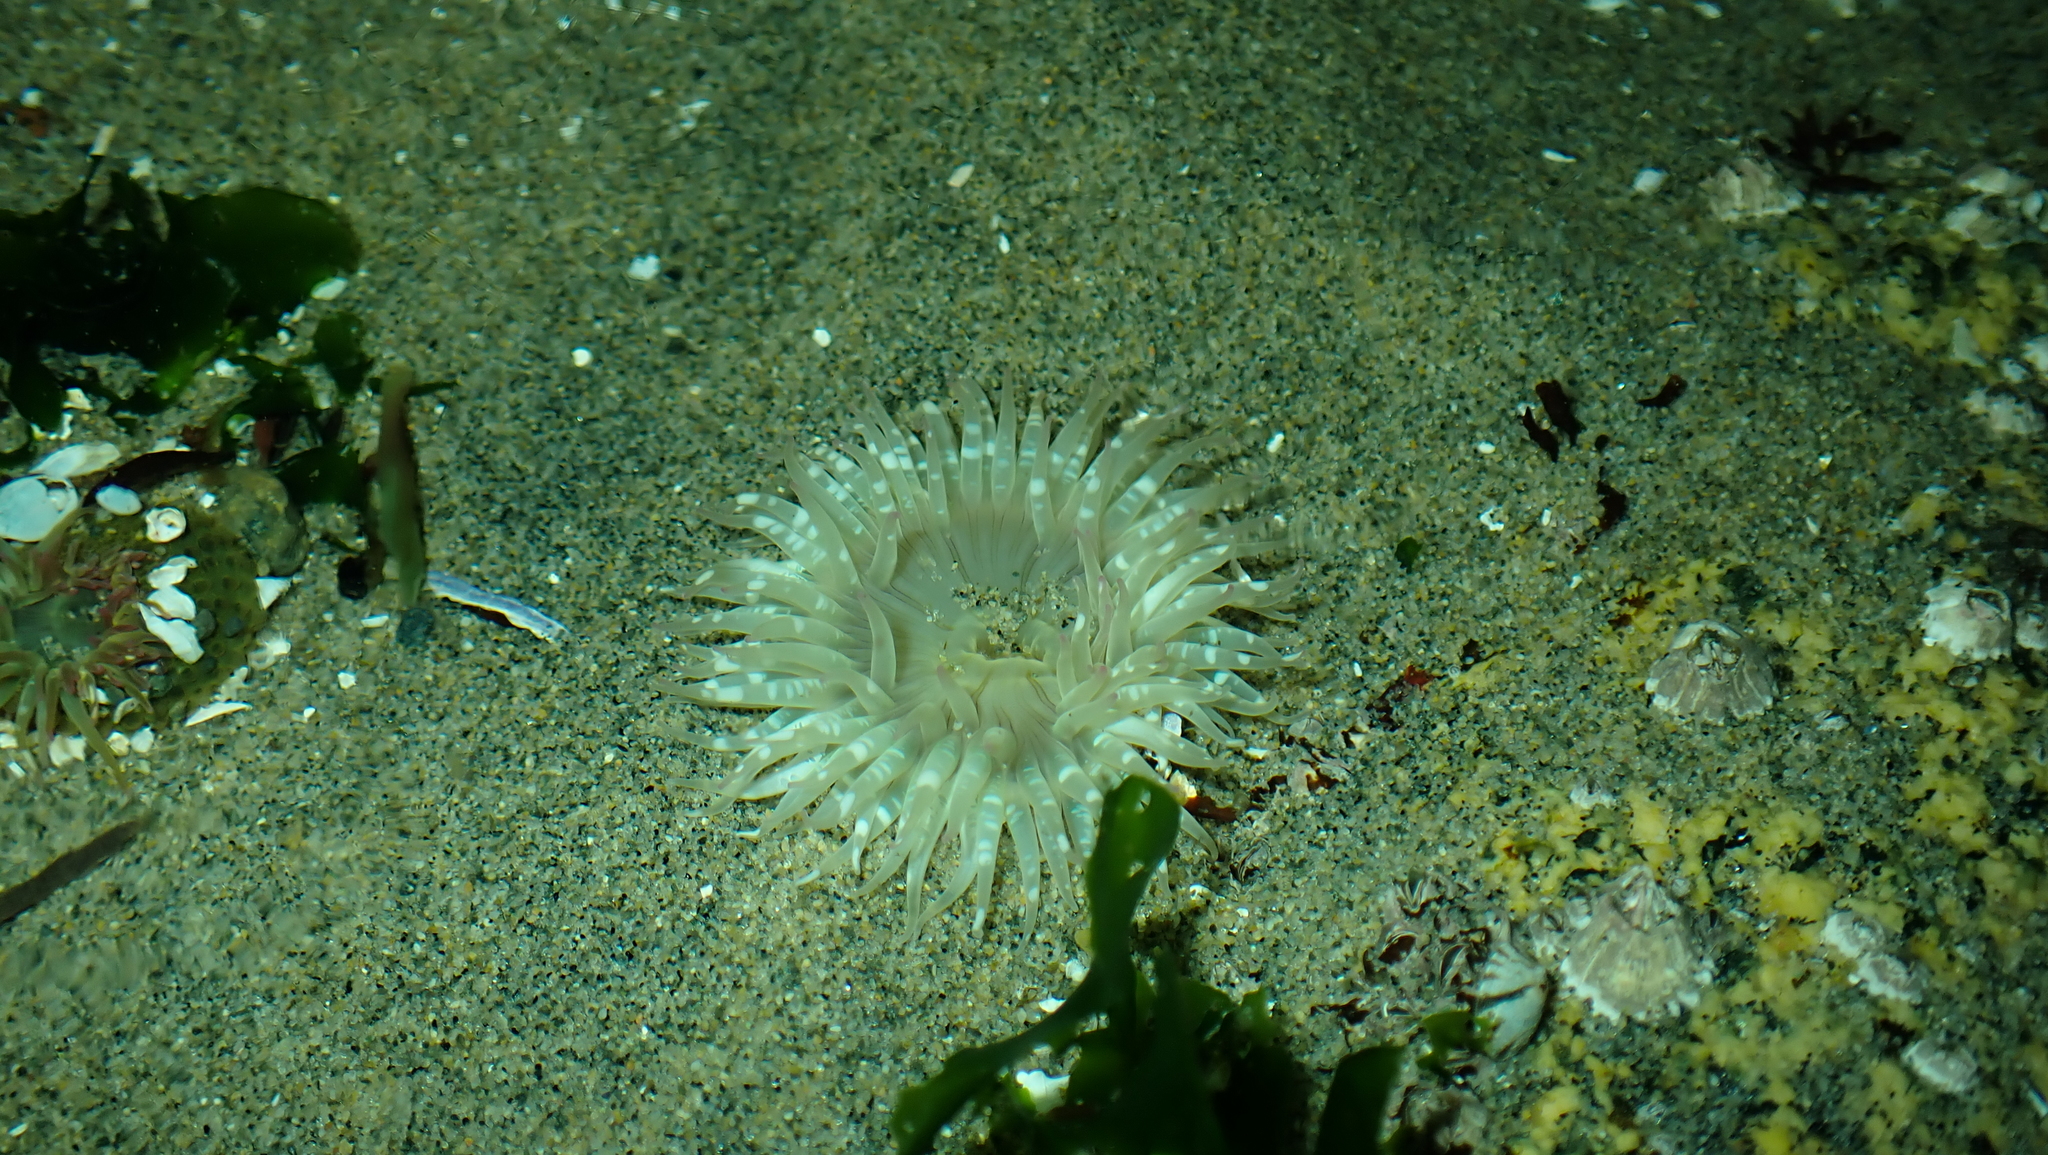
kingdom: Animalia
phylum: Cnidaria
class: Anthozoa
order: Actiniaria
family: Actiniidae
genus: Anthopleura
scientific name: Anthopleura elegantissima
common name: Clonal anemone
